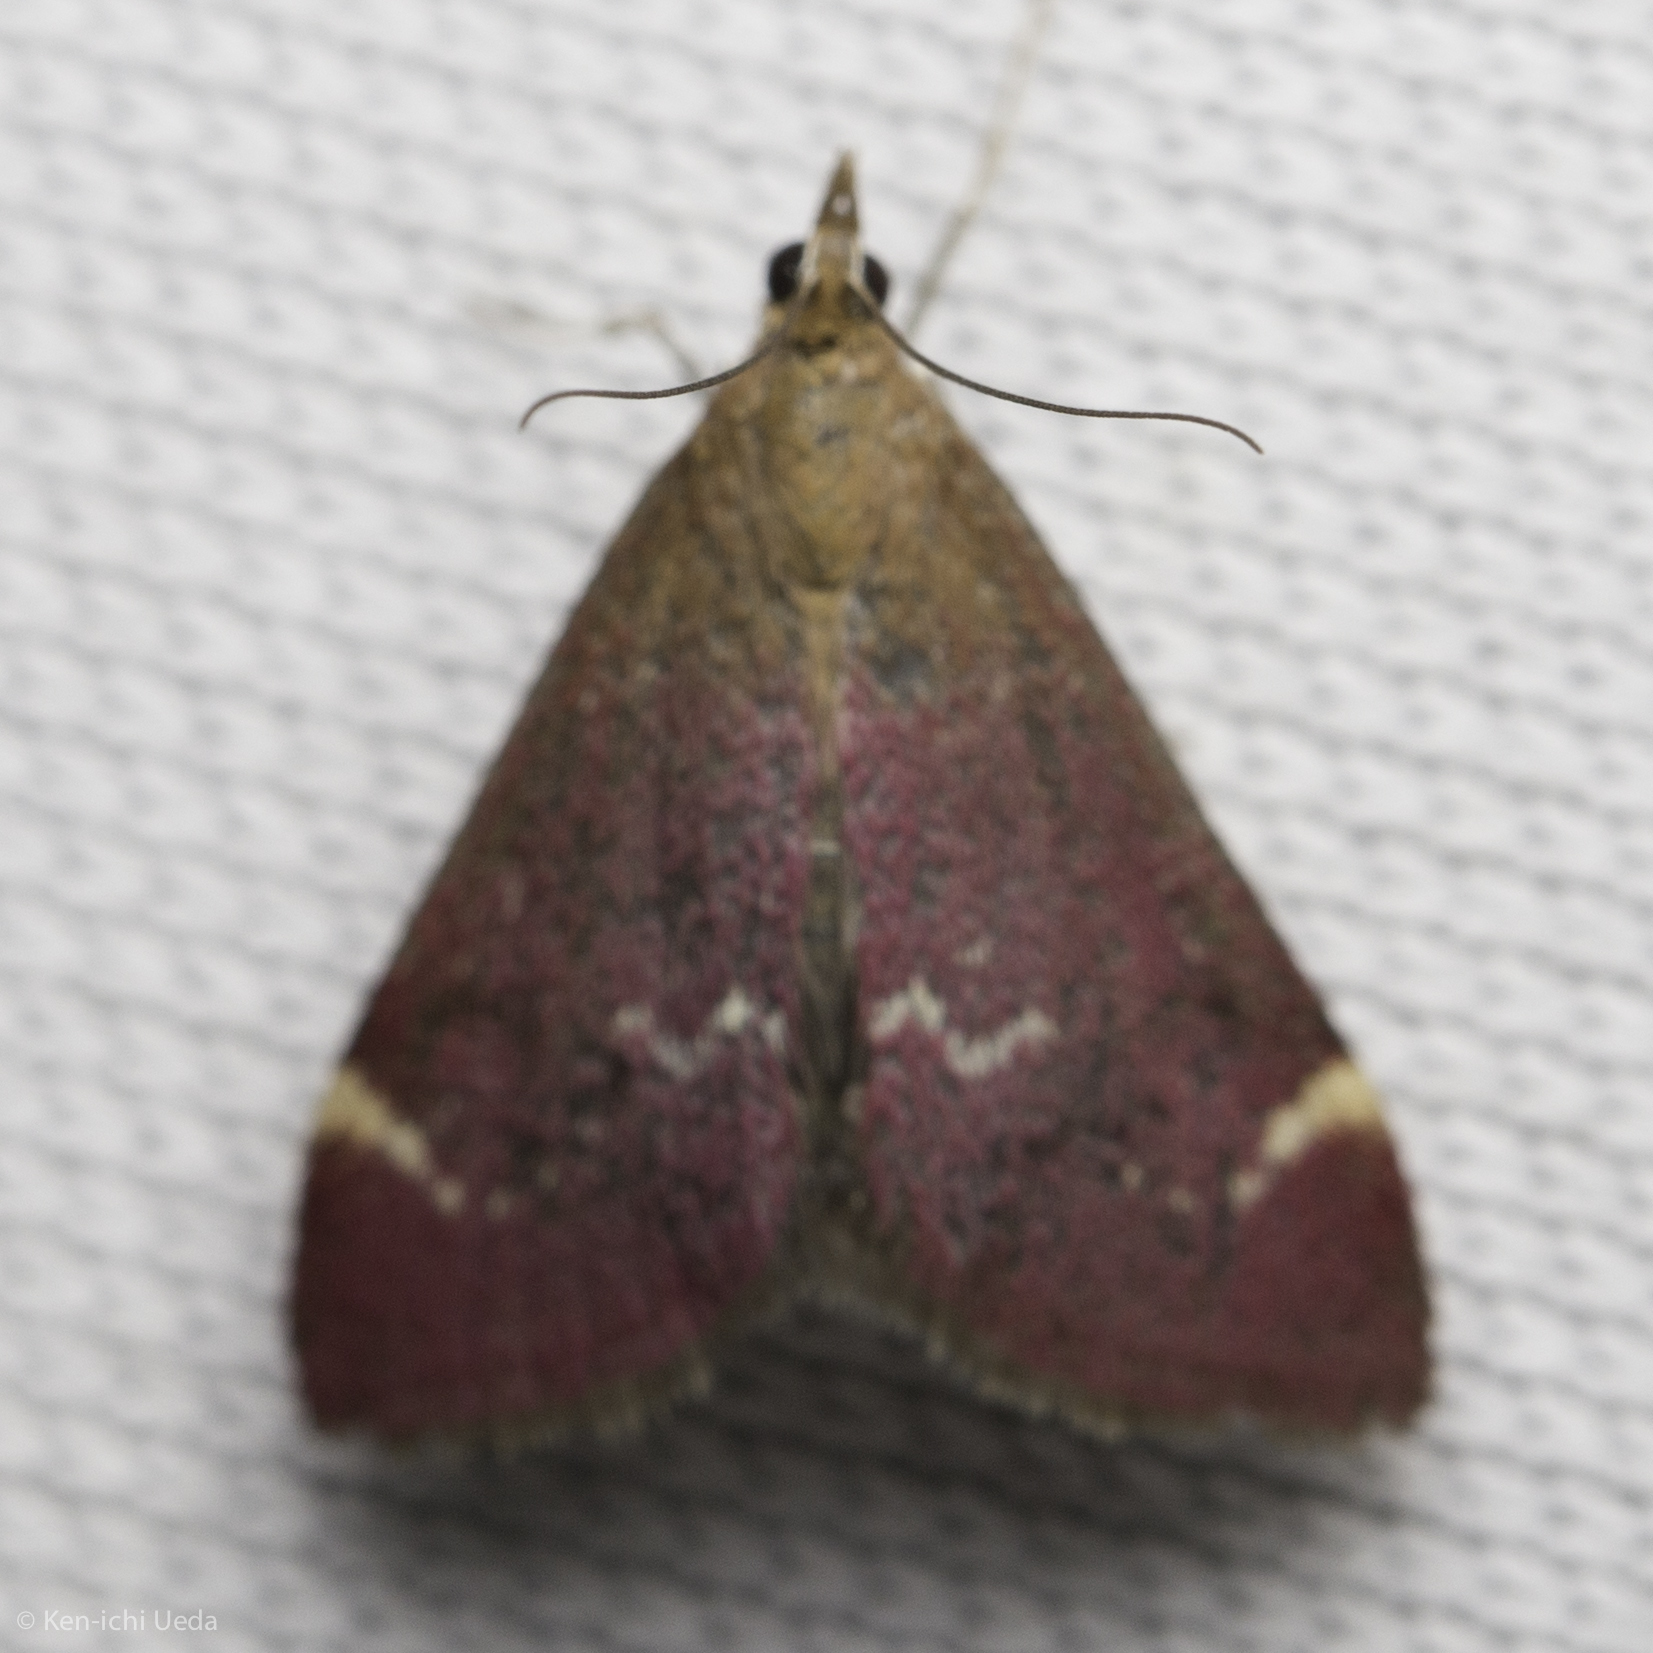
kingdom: Animalia
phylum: Arthropoda
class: Insecta
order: Lepidoptera
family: Crambidae
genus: Pyrausta
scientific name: Pyrausta grotei
